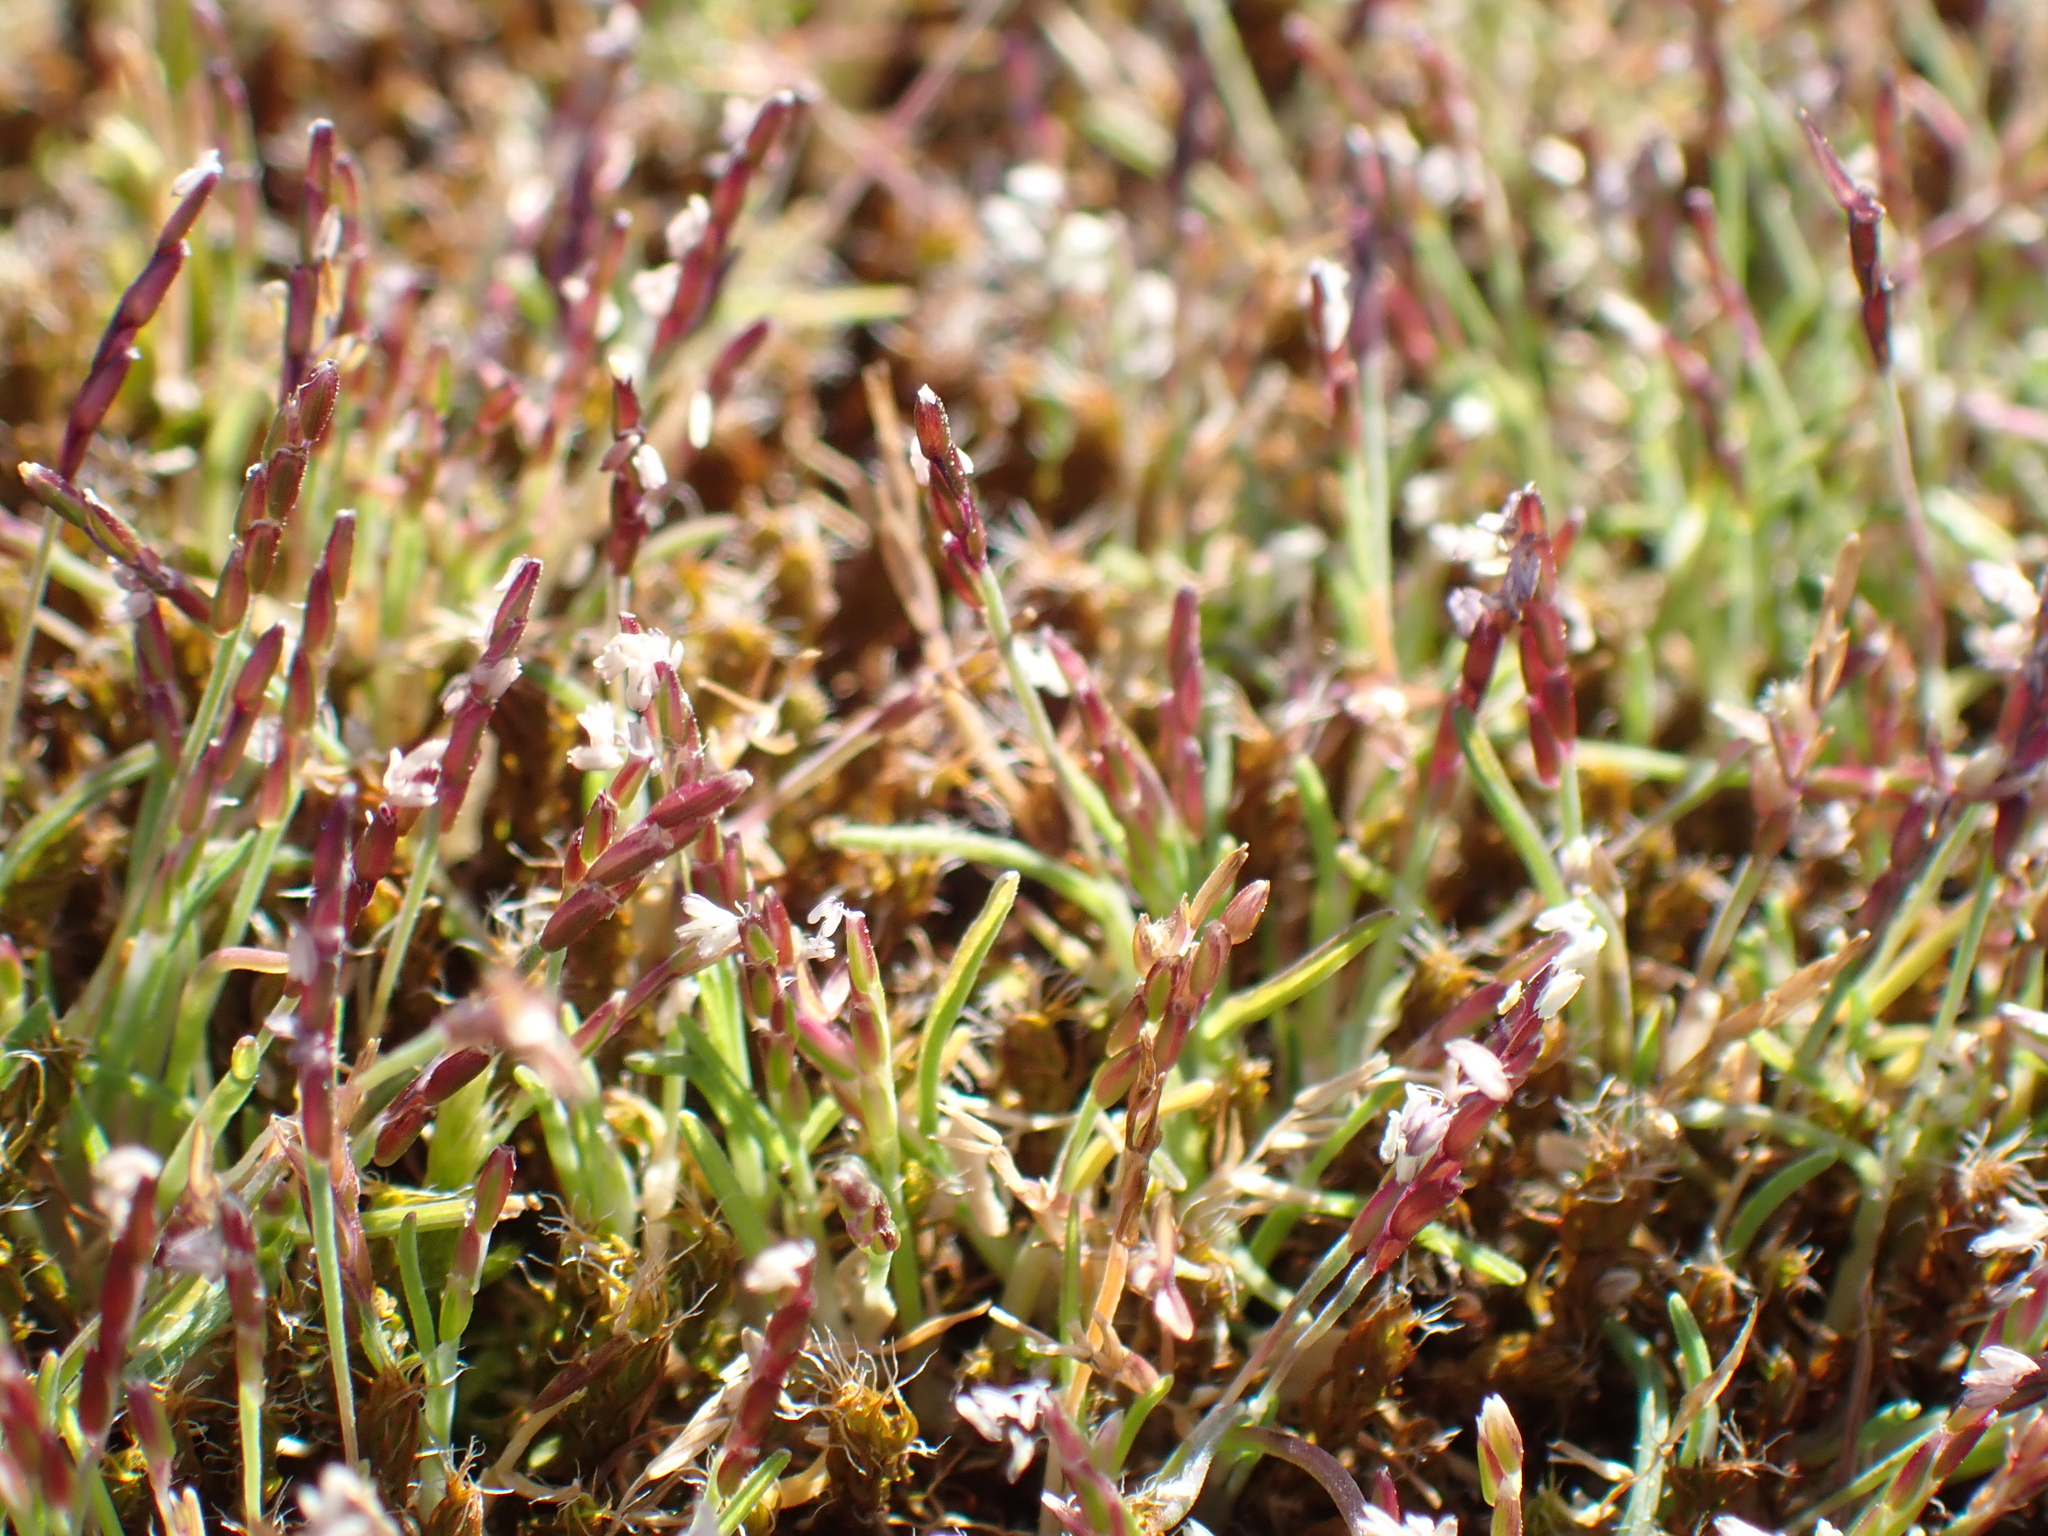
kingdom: Plantae
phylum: Tracheophyta
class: Liliopsida
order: Poales
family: Poaceae
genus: Mibora
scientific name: Mibora minima
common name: Early sand-grass
